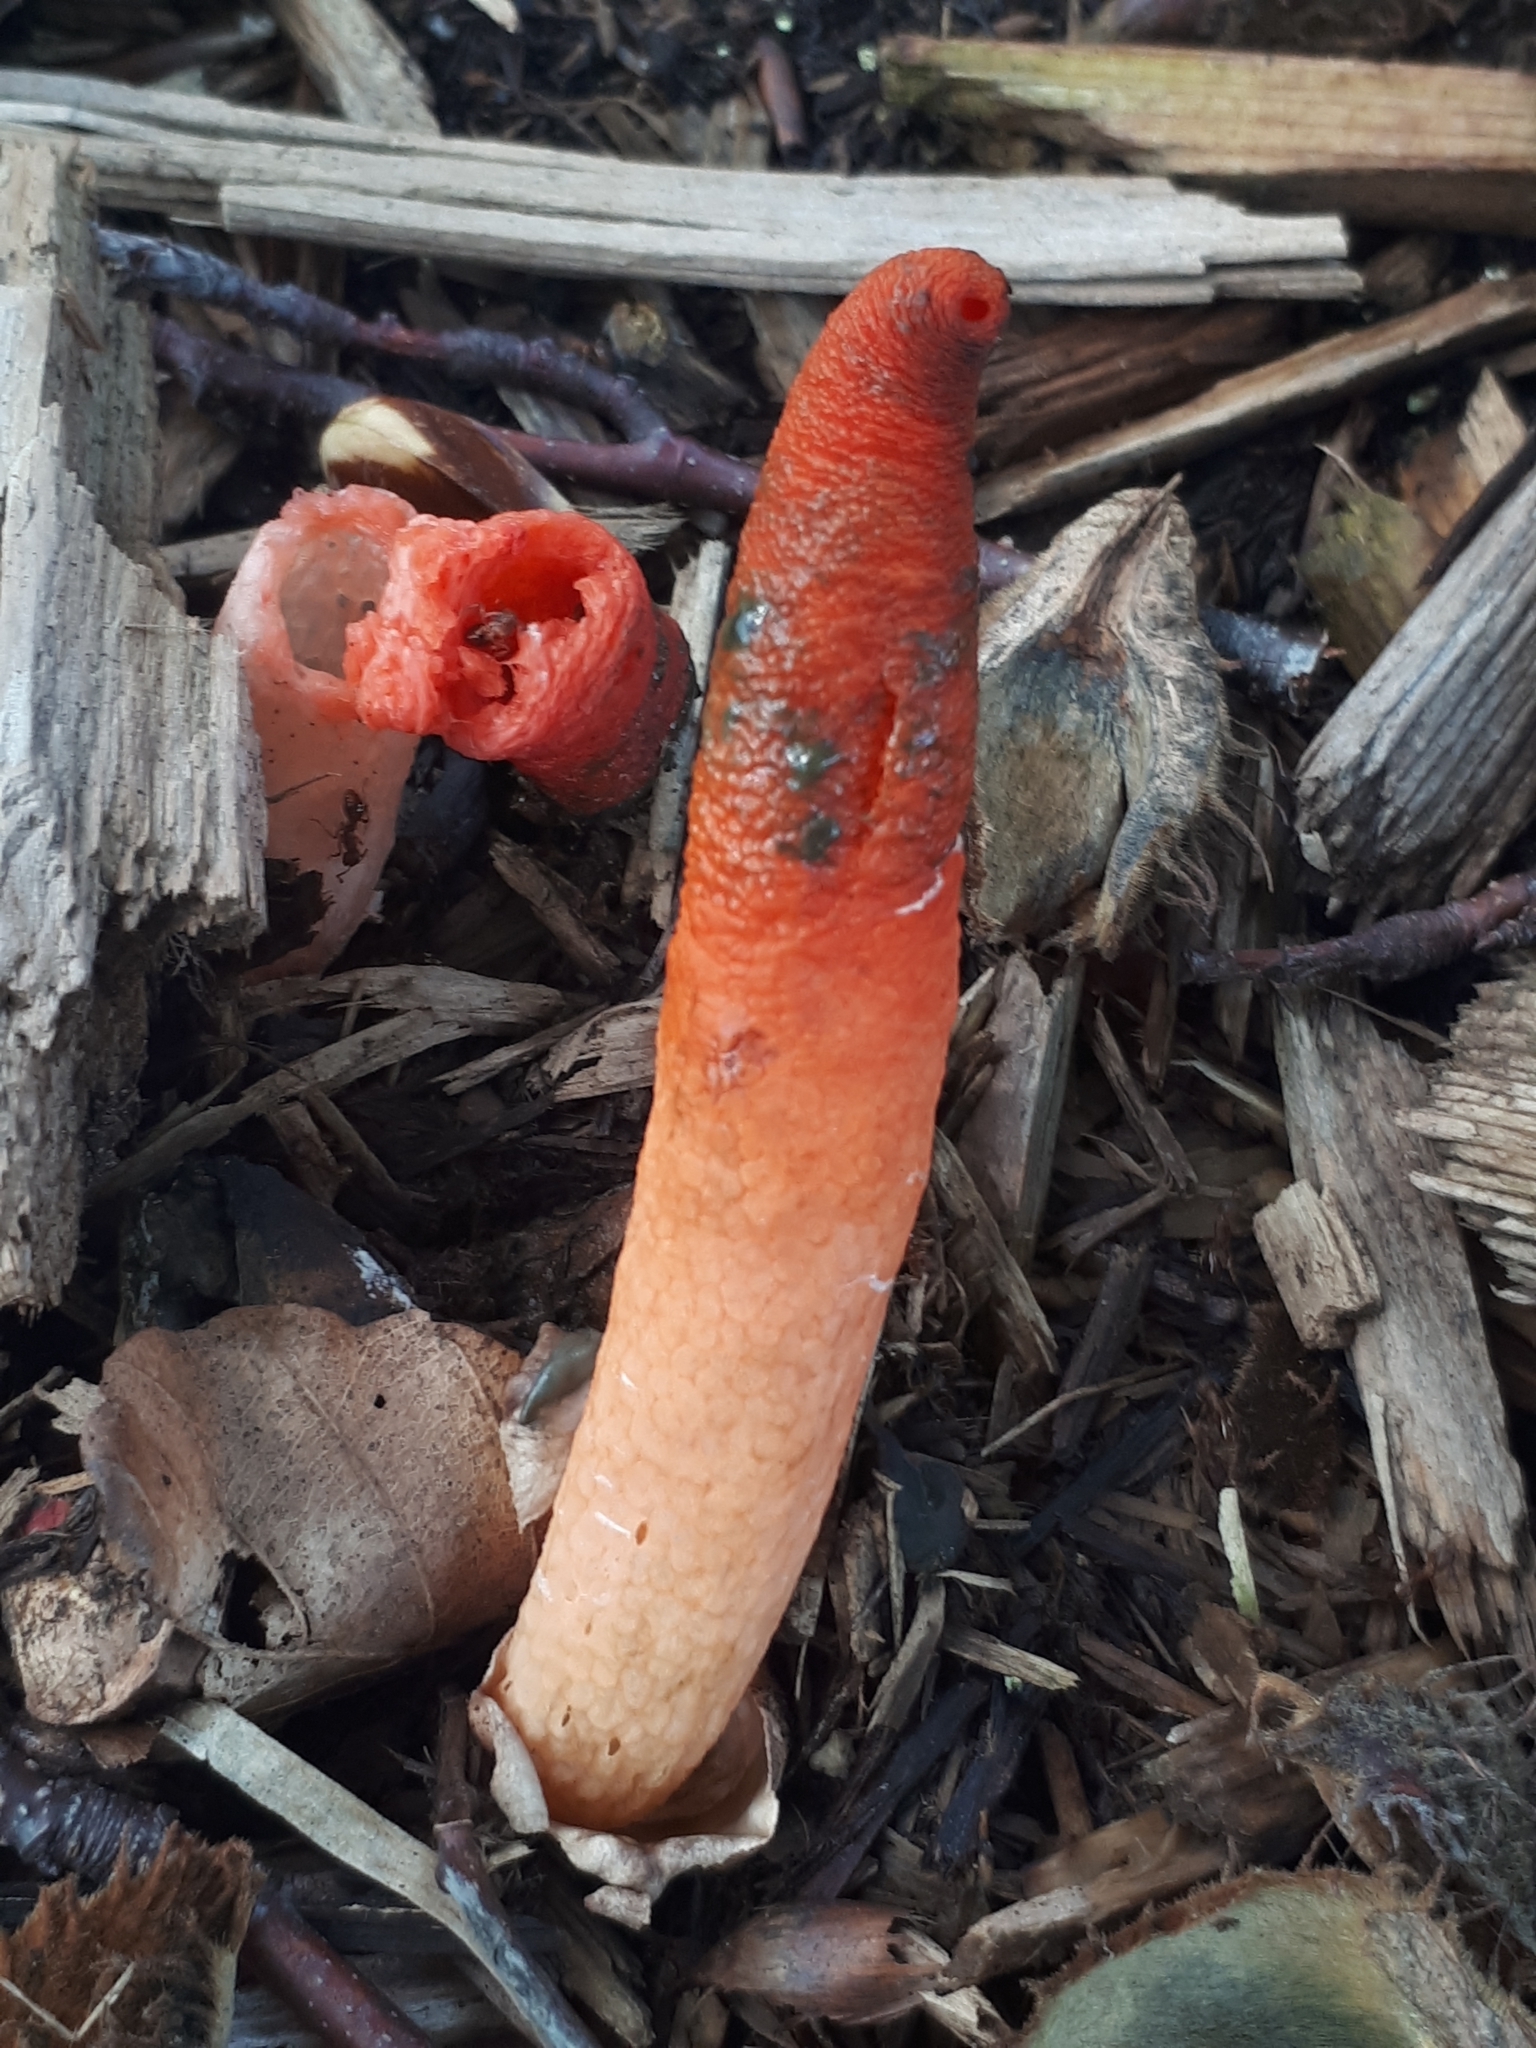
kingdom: Fungi
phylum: Basidiomycota
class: Agaricomycetes
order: Phallales
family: Phallaceae
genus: Mutinus
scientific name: Mutinus elegans
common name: Devil's dipstick
